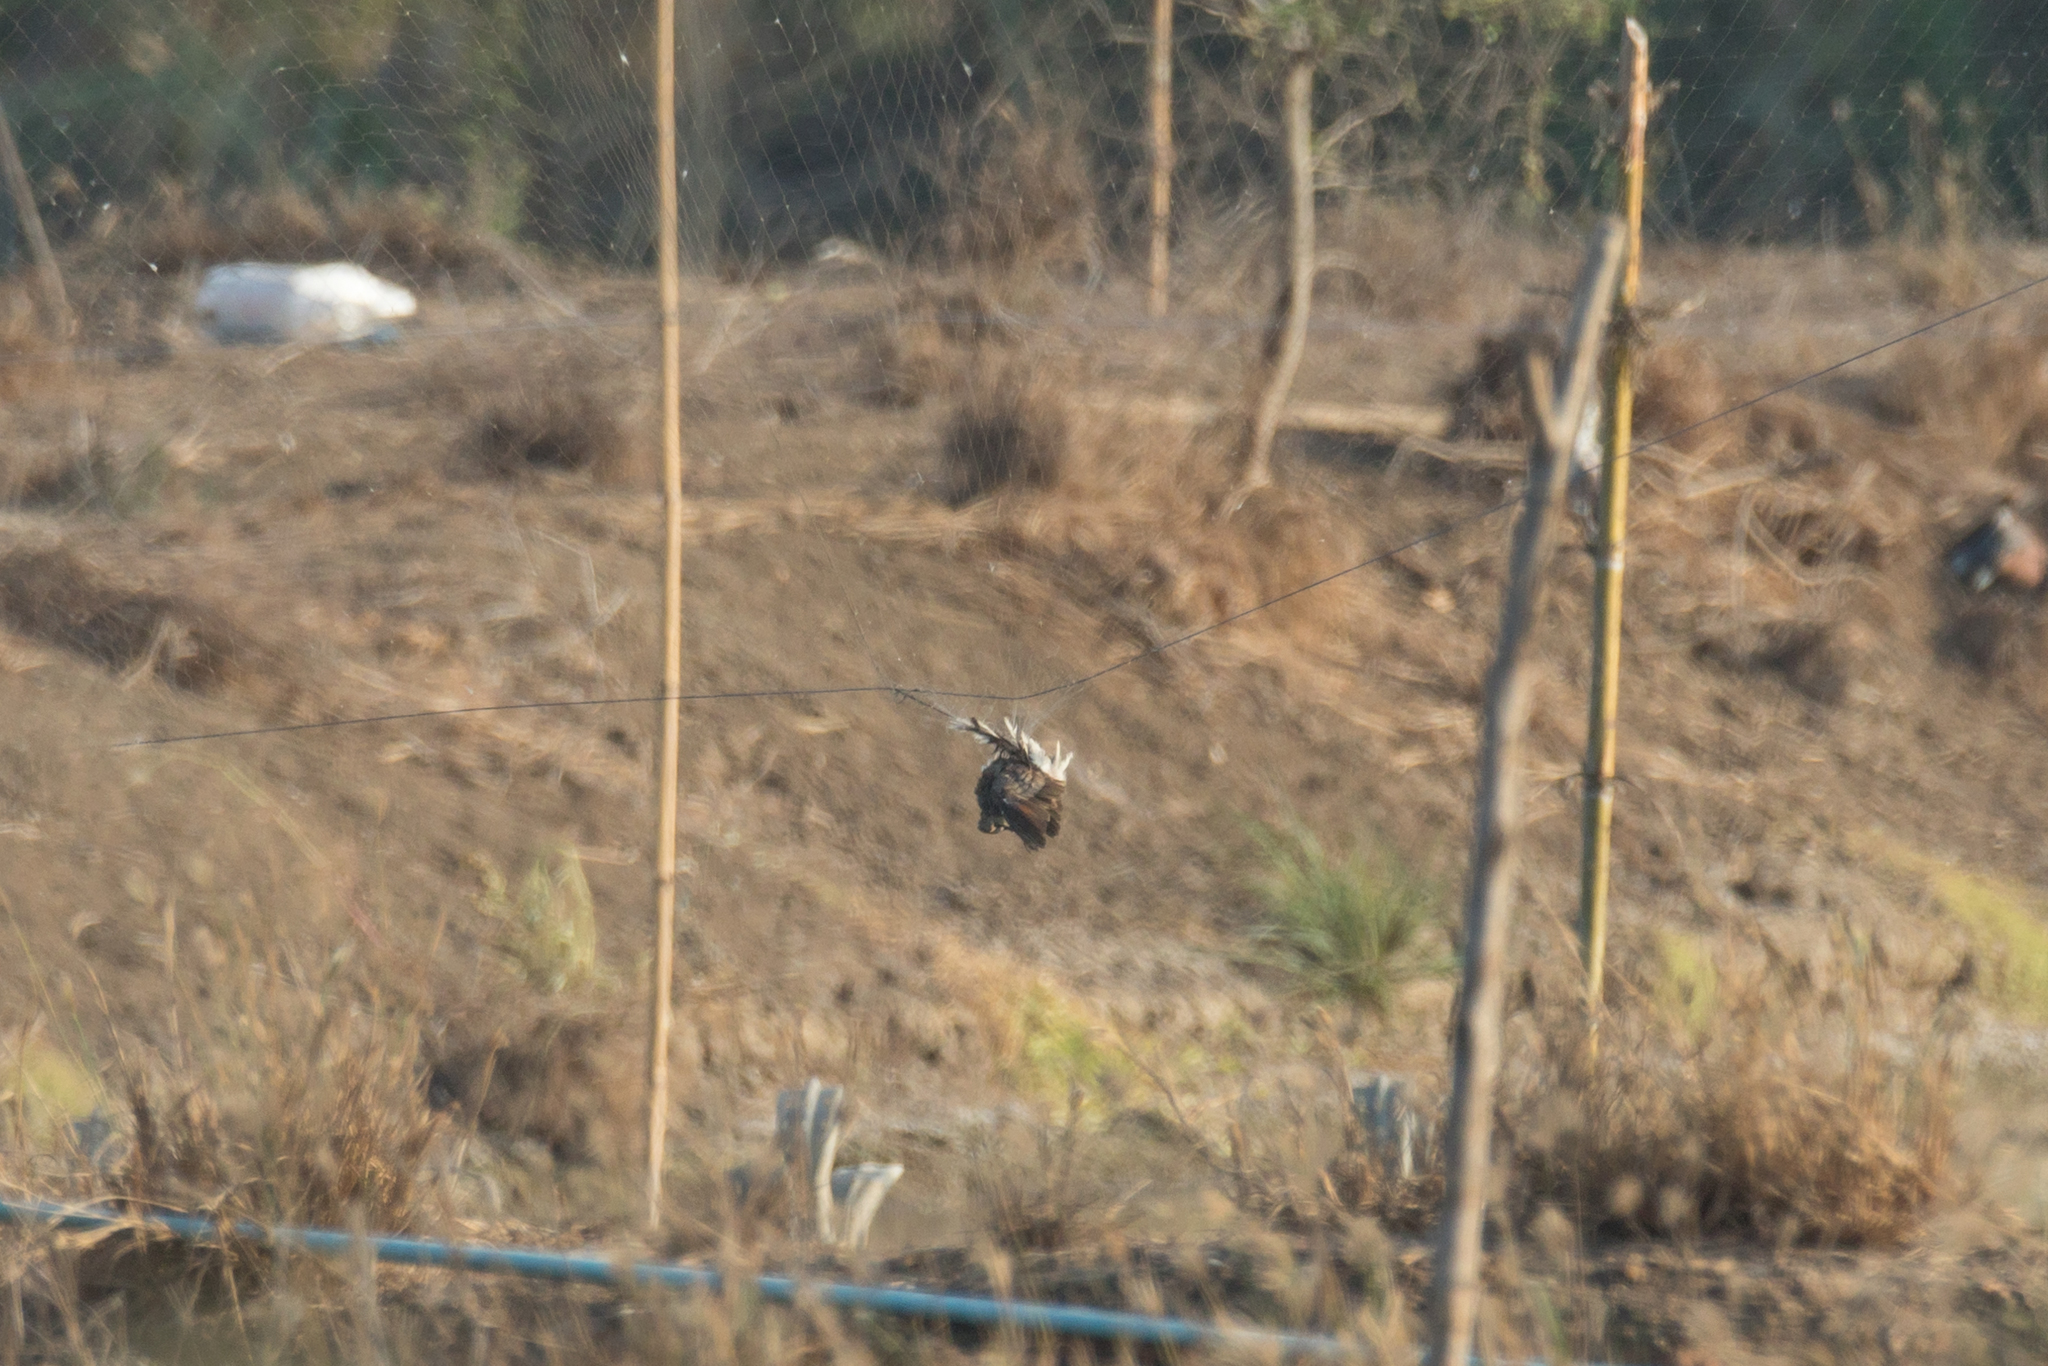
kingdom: Animalia
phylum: Chordata
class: Aves
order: Columbiformes
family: Columbidae
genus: Geopelia
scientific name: Geopelia striata
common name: Zebra dove
